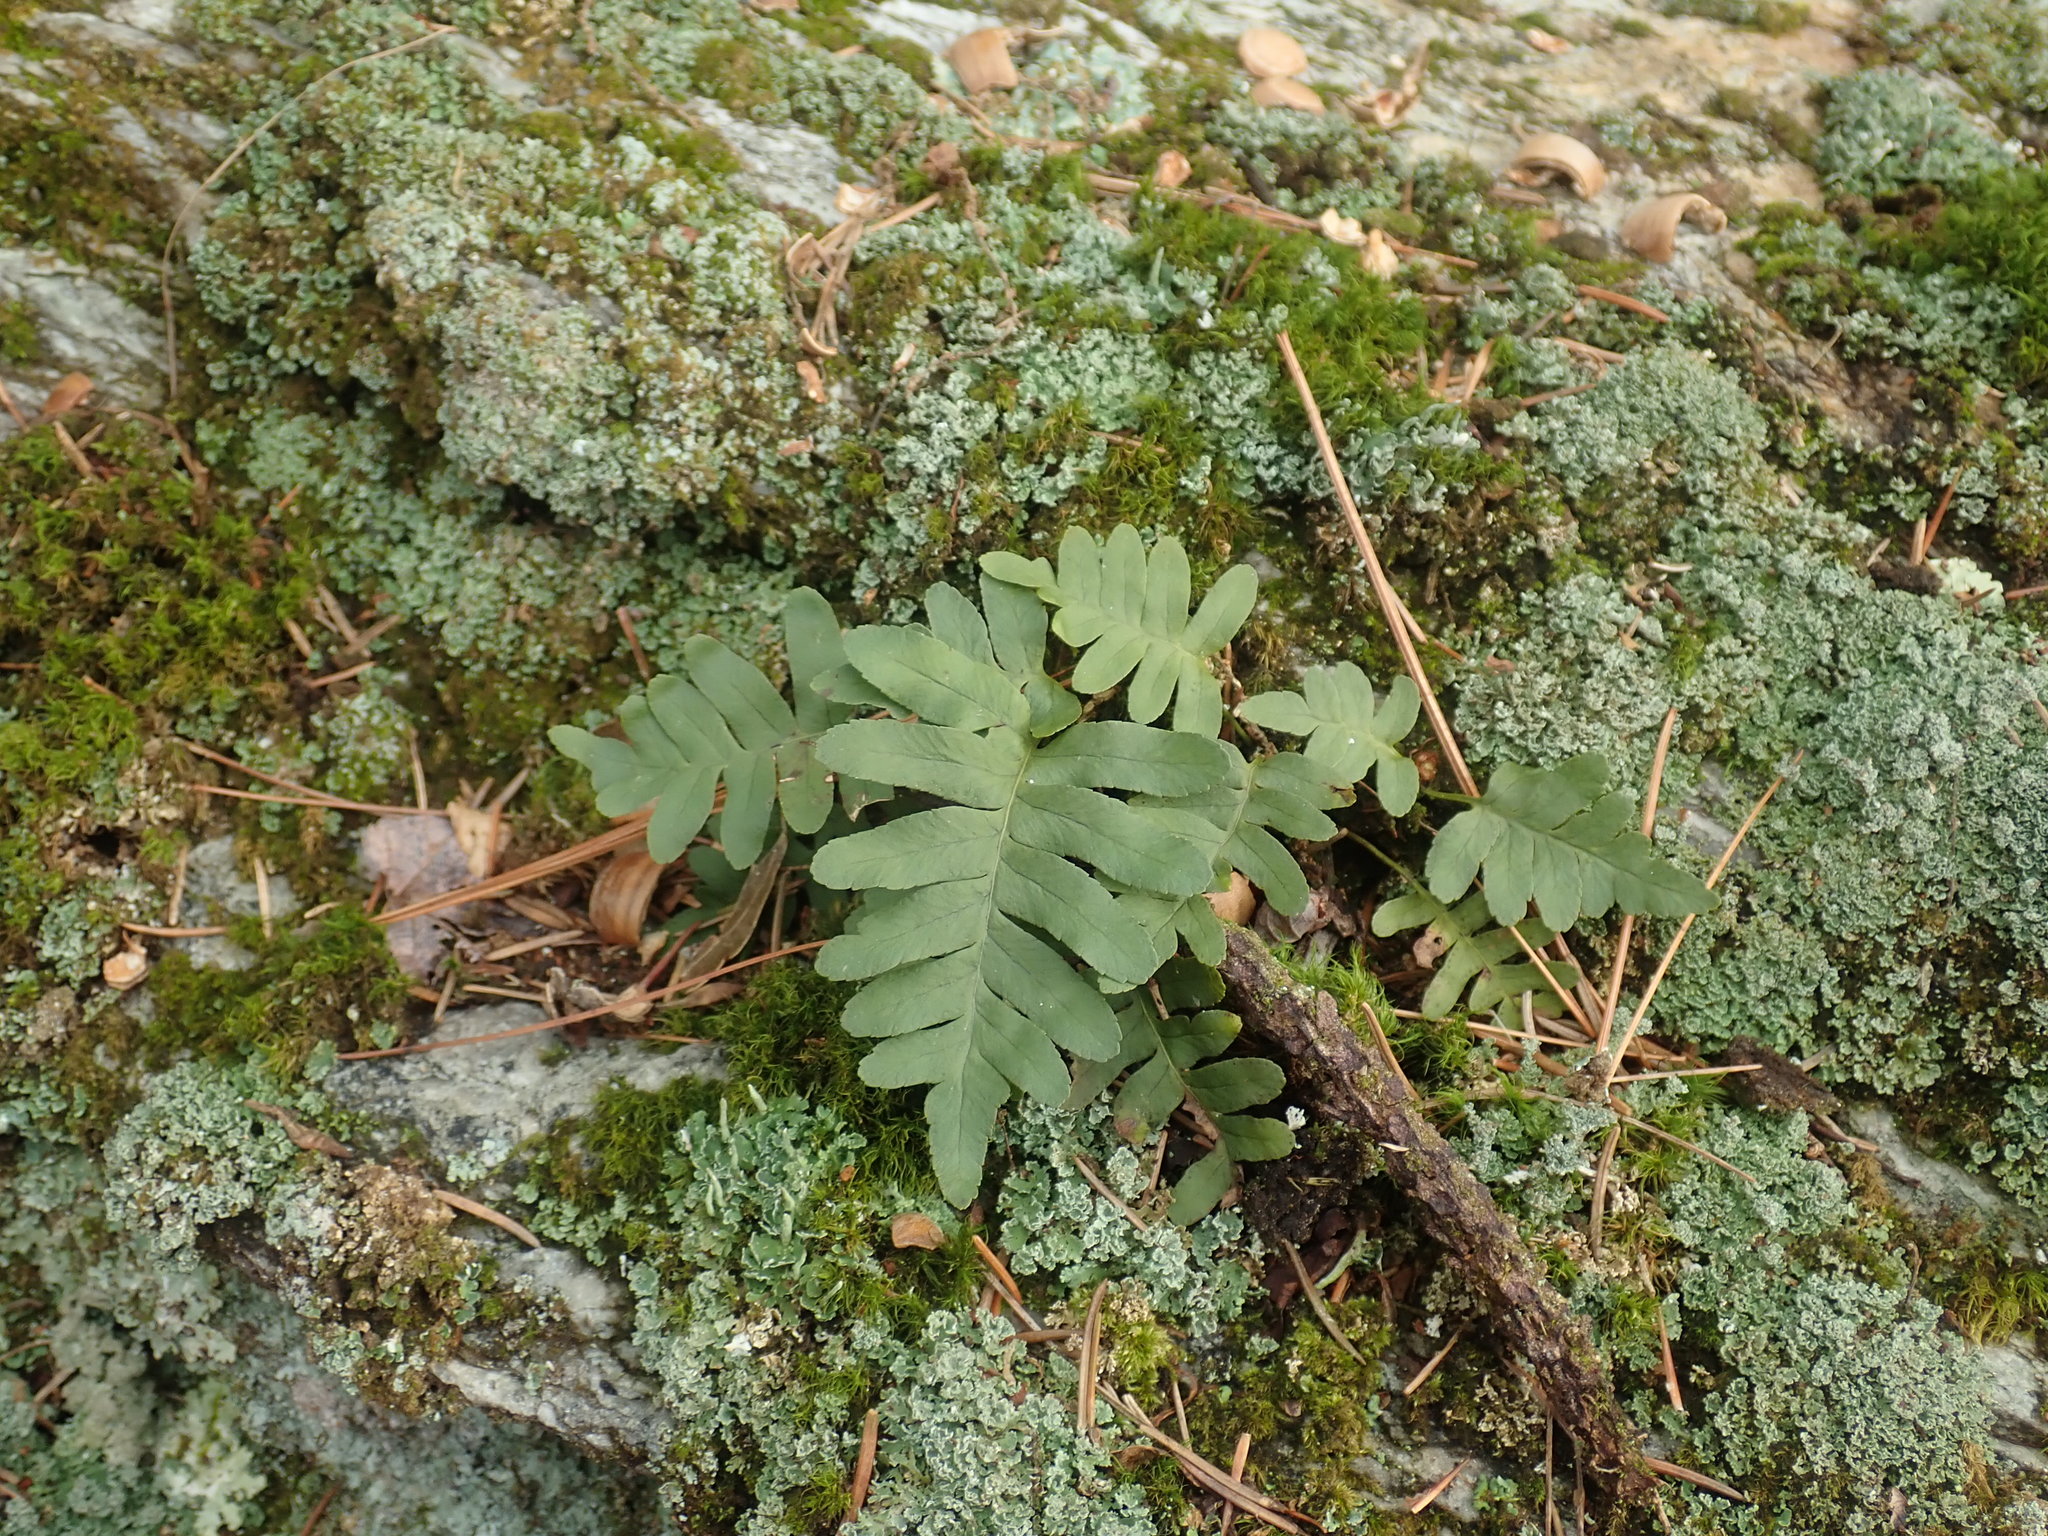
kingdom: Plantae
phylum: Tracheophyta
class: Polypodiopsida
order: Polypodiales
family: Polypodiaceae
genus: Polypodium
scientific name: Polypodium
